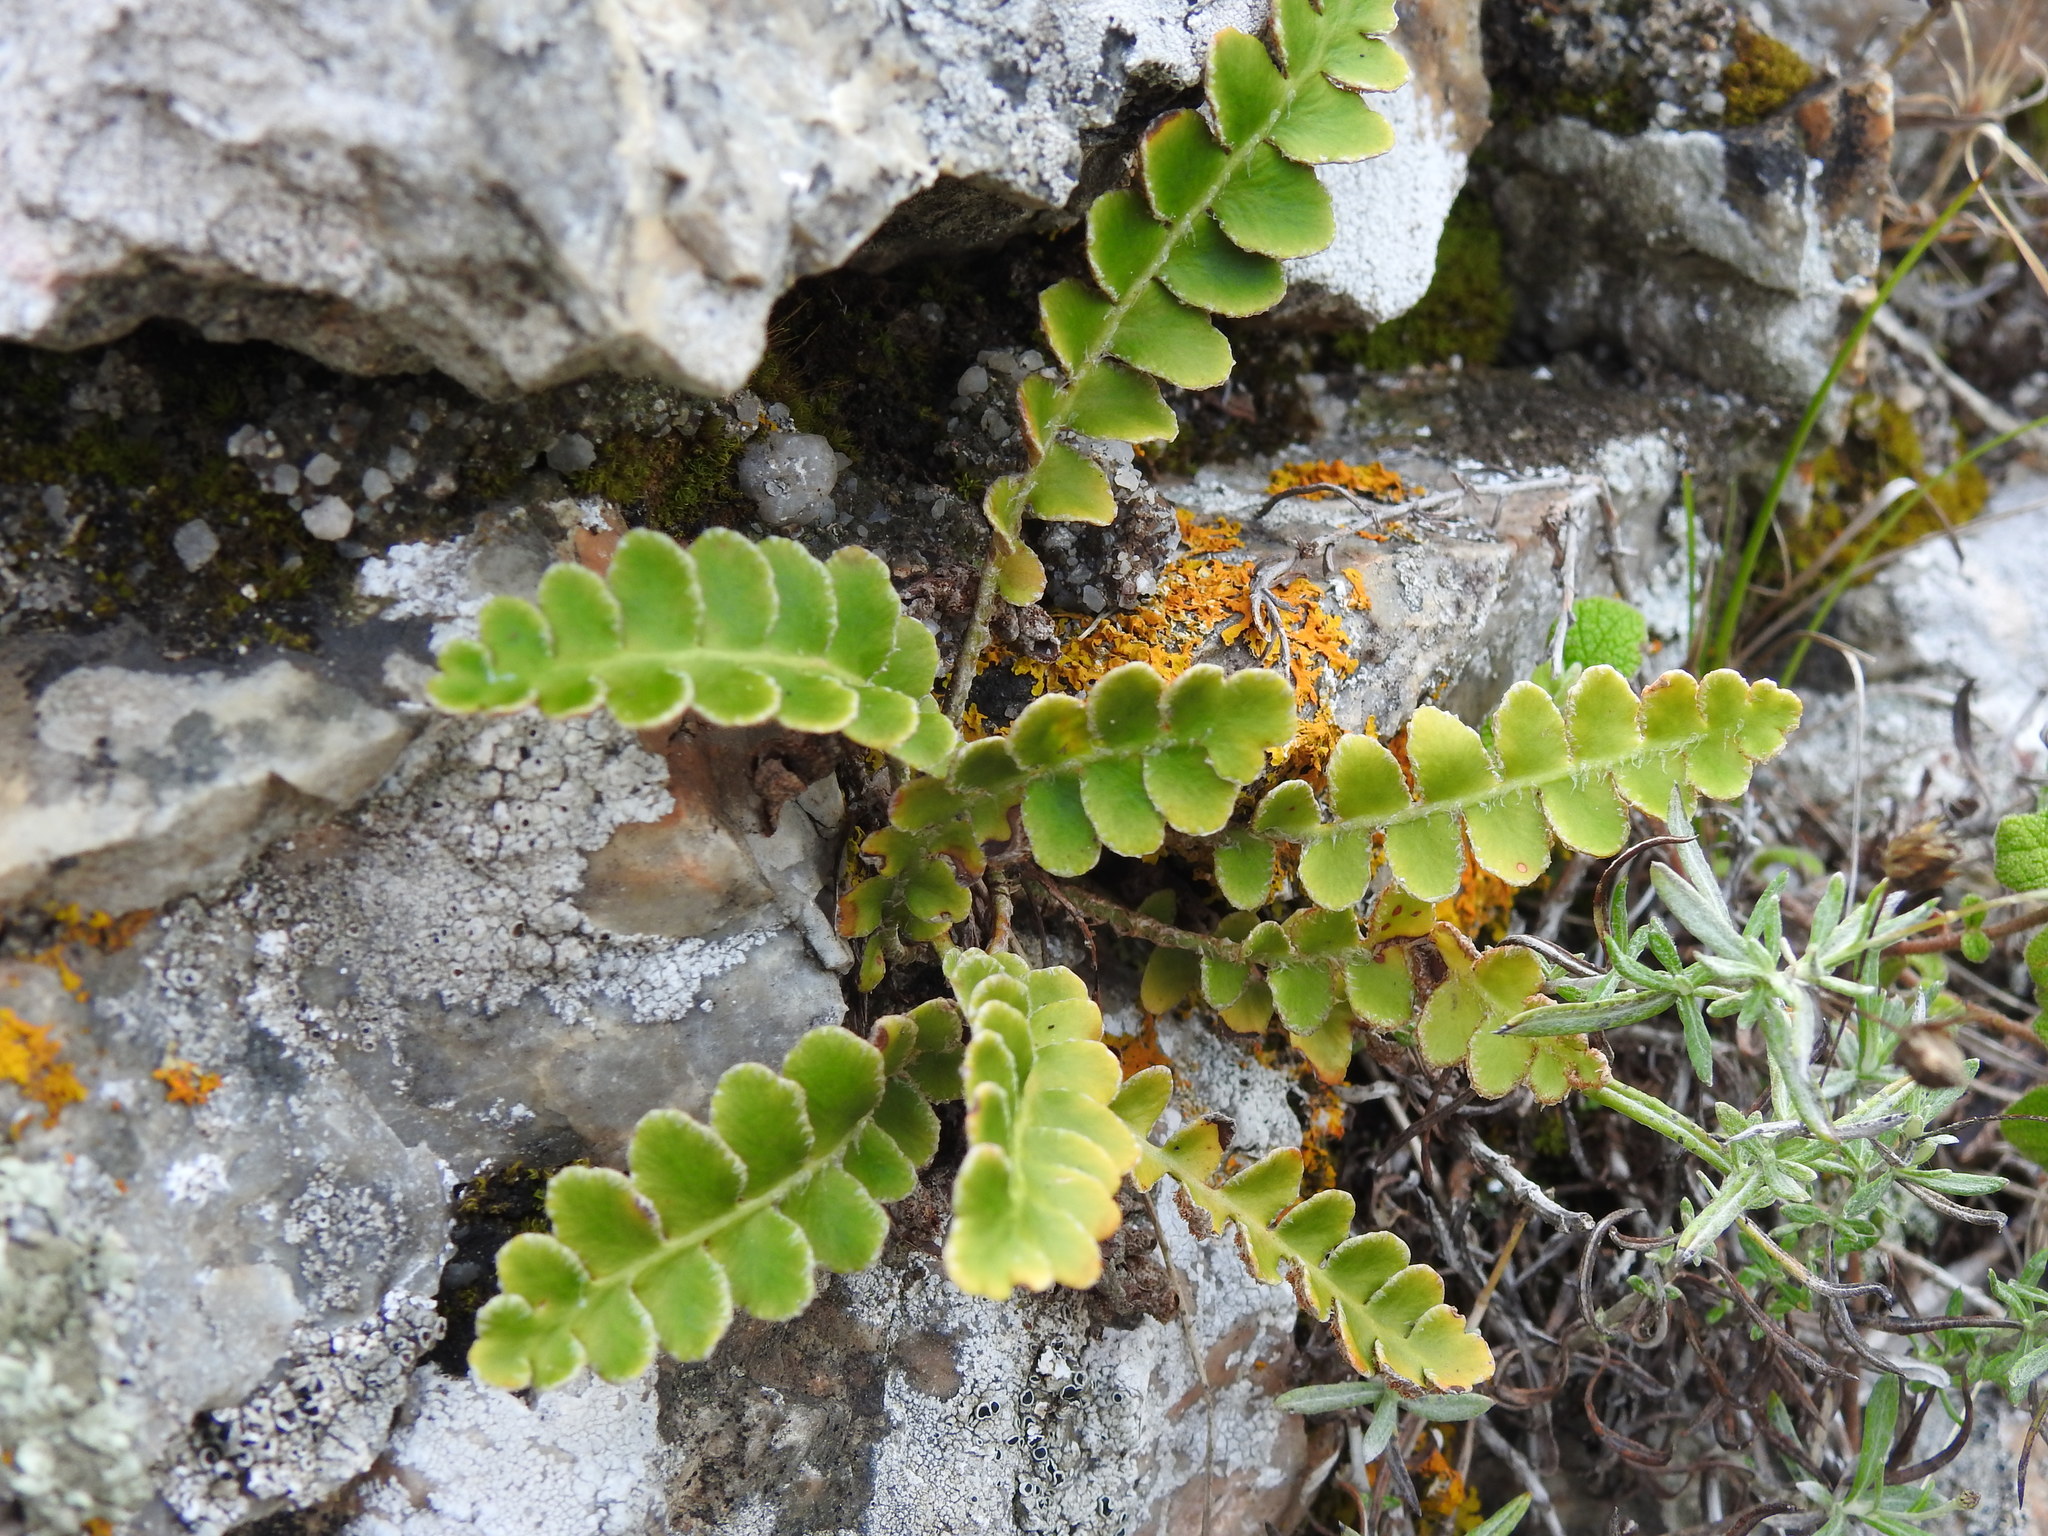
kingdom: Plantae
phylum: Tracheophyta
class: Polypodiopsida
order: Polypodiales
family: Aspleniaceae
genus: Asplenium
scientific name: Asplenium ceterach
